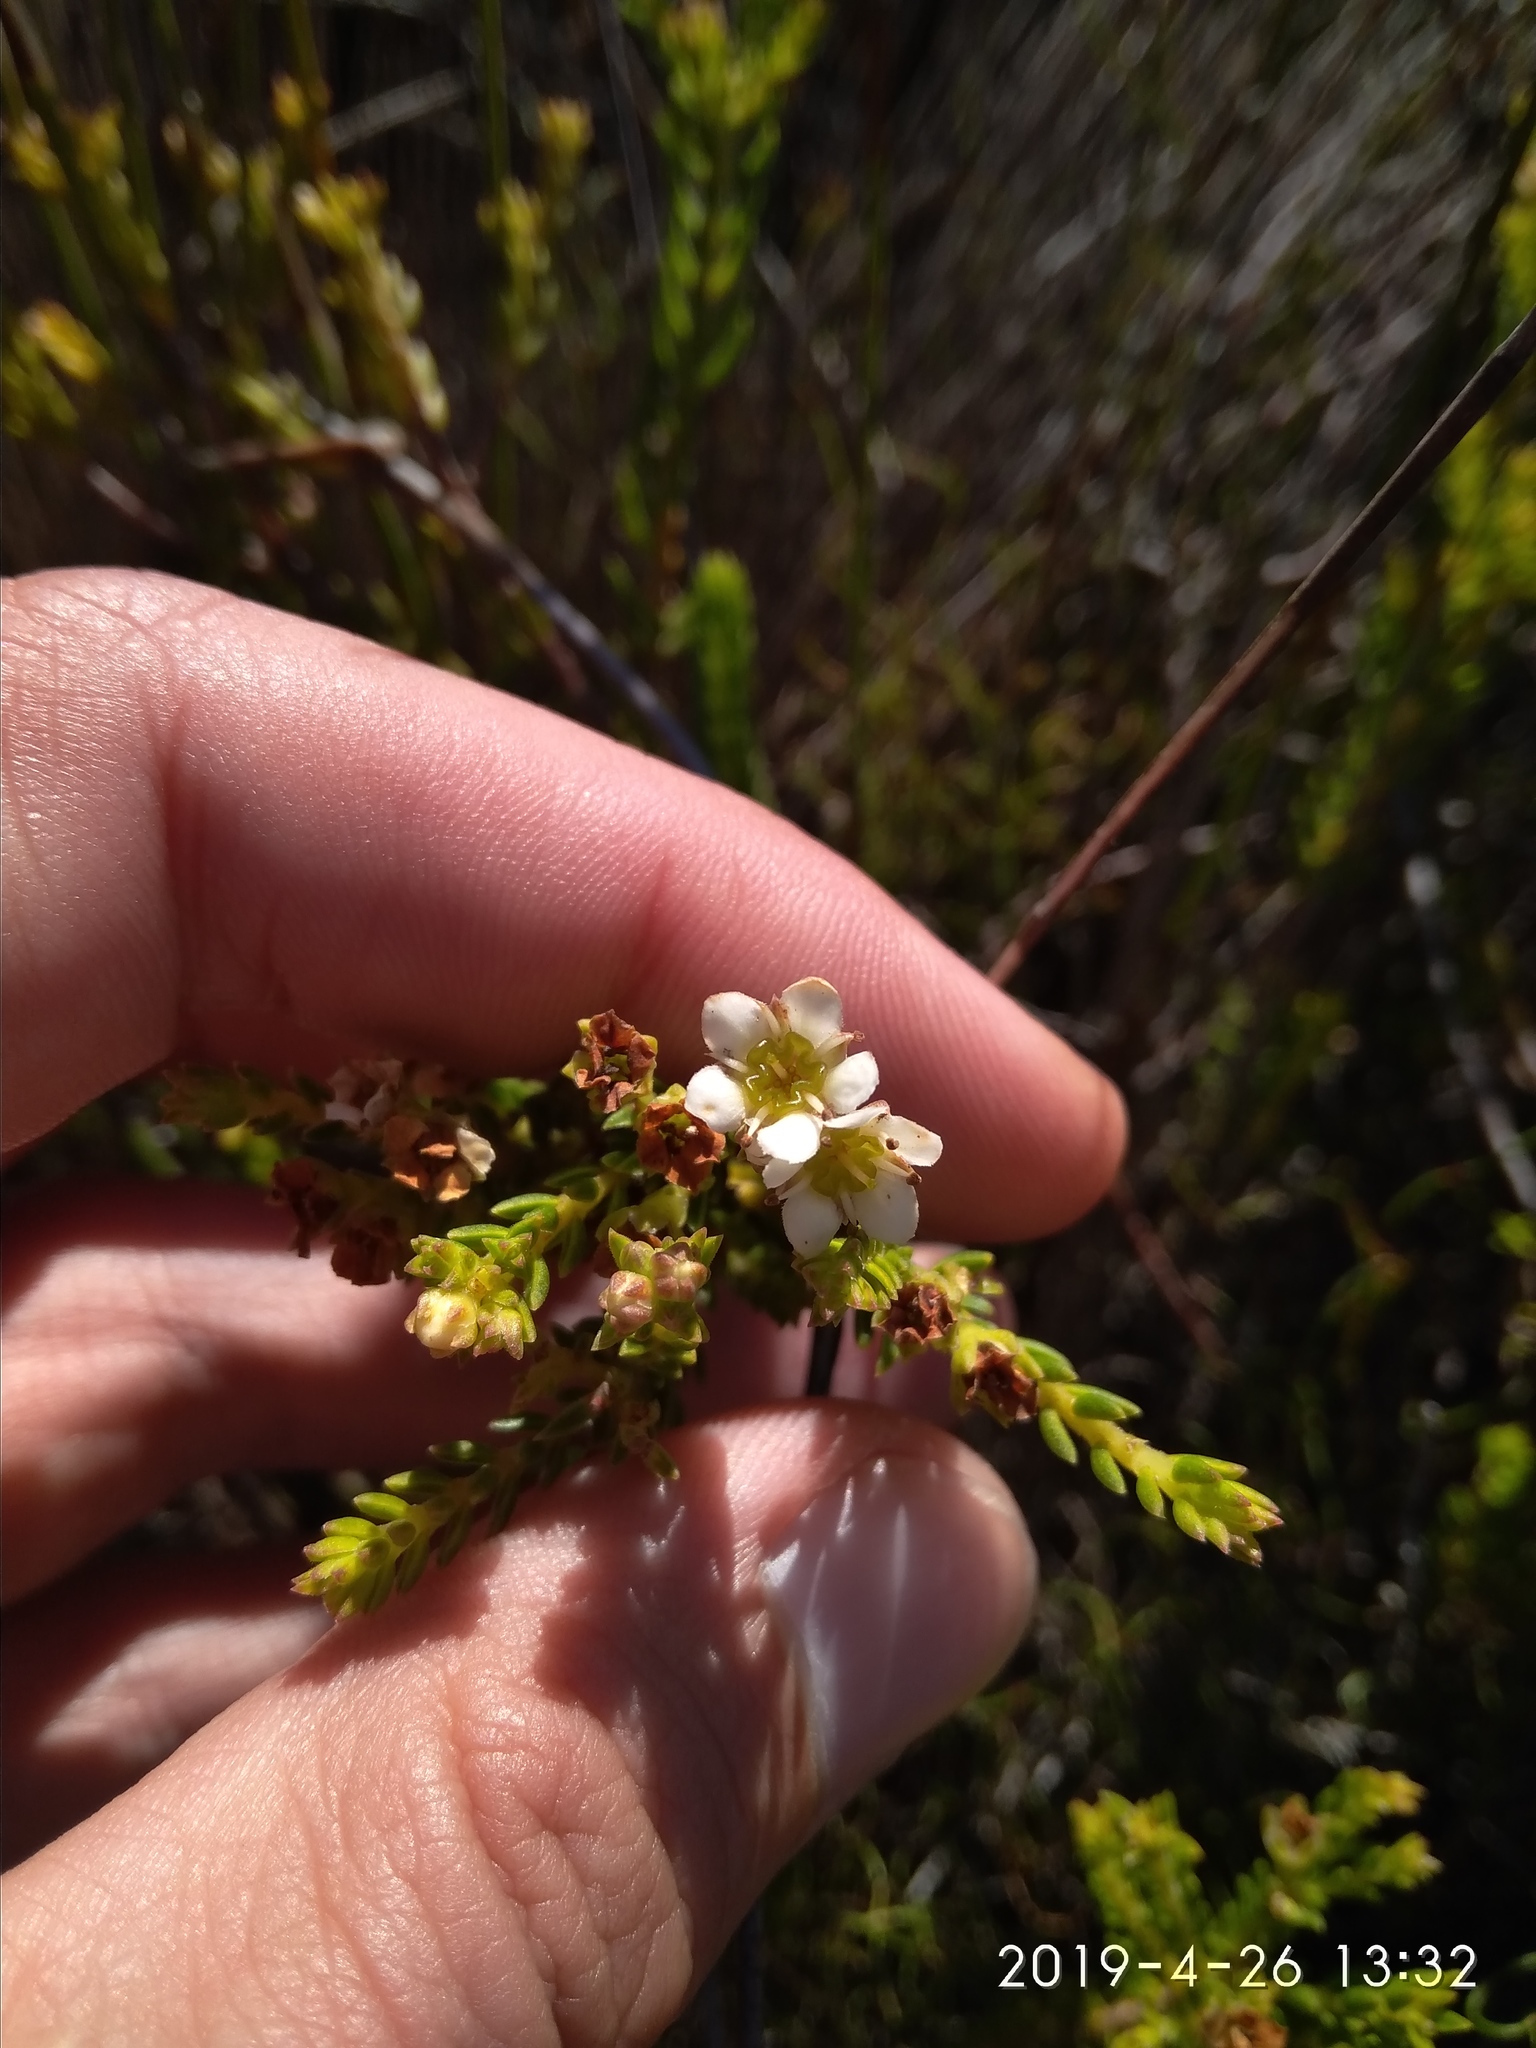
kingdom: Plantae
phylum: Tracheophyta
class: Magnoliopsida
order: Sapindales
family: Rutaceae
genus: Diosma
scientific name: Diosma oppositifolia
